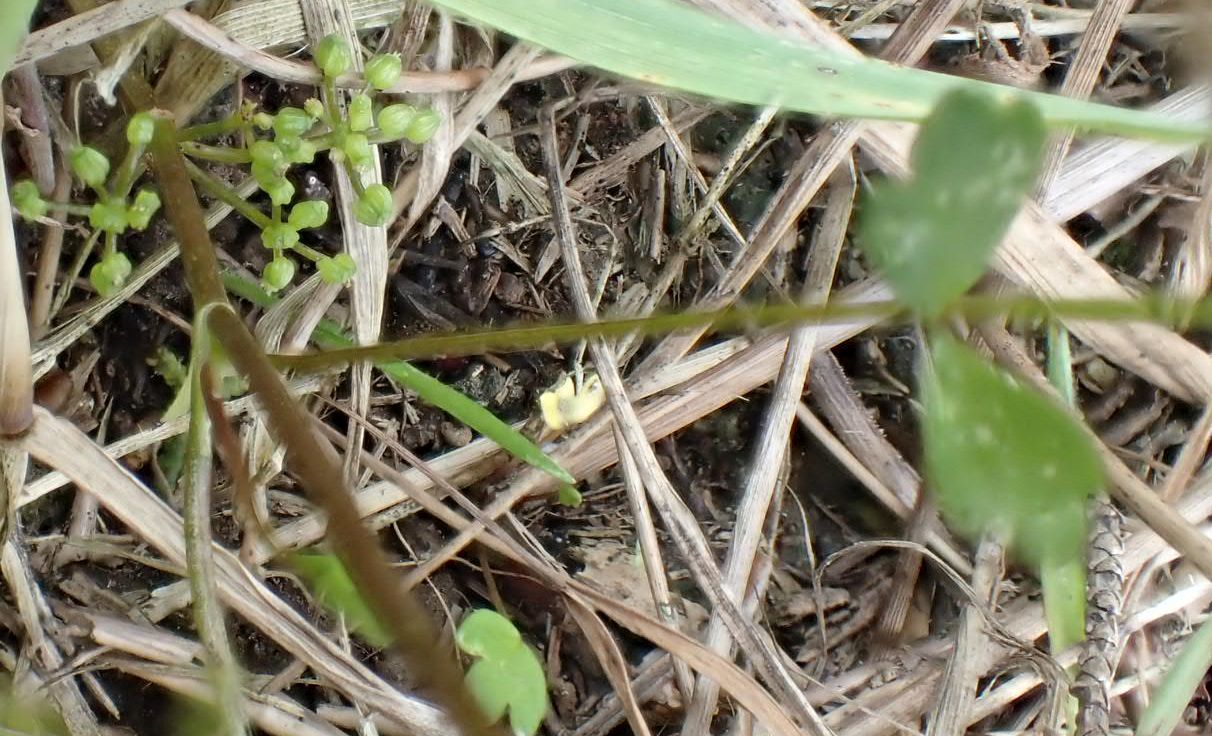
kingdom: Plantae
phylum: Tracheophyta
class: Magnoliopsida
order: Apiales
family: Apiaceae
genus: Apium
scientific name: Apium prostratum
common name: Prostrate marshwort
